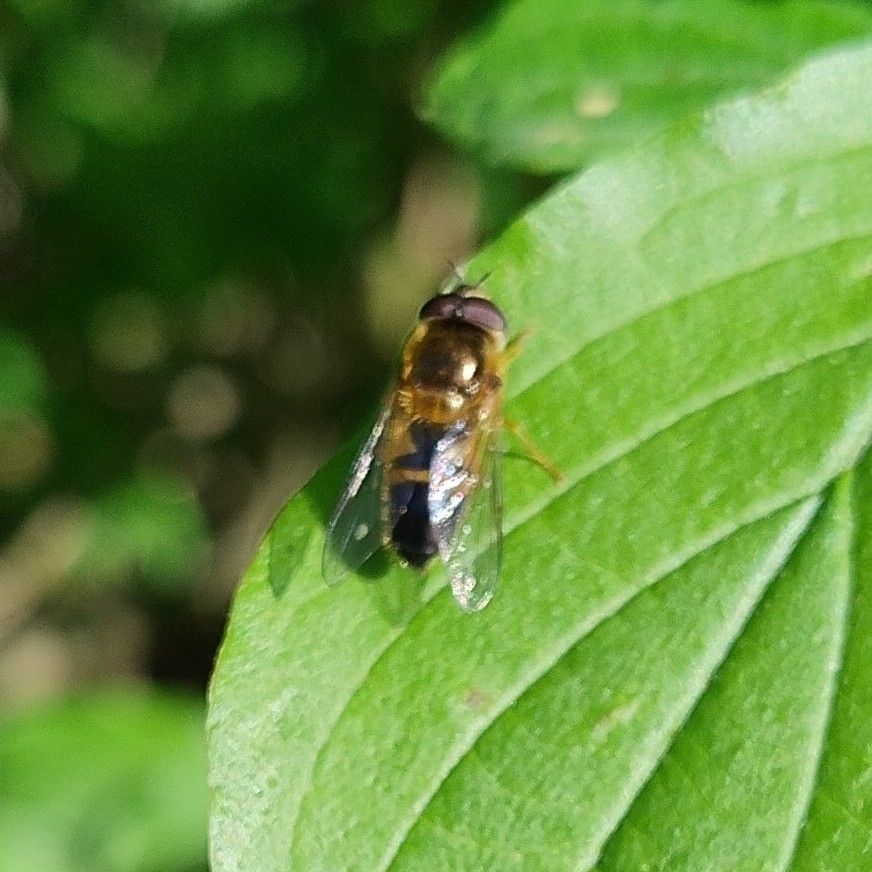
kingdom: Animalia
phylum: Arthropoda
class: Insecta
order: Diptera
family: Syrphidae
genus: Epistrophe
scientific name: Epistrophe eligans
